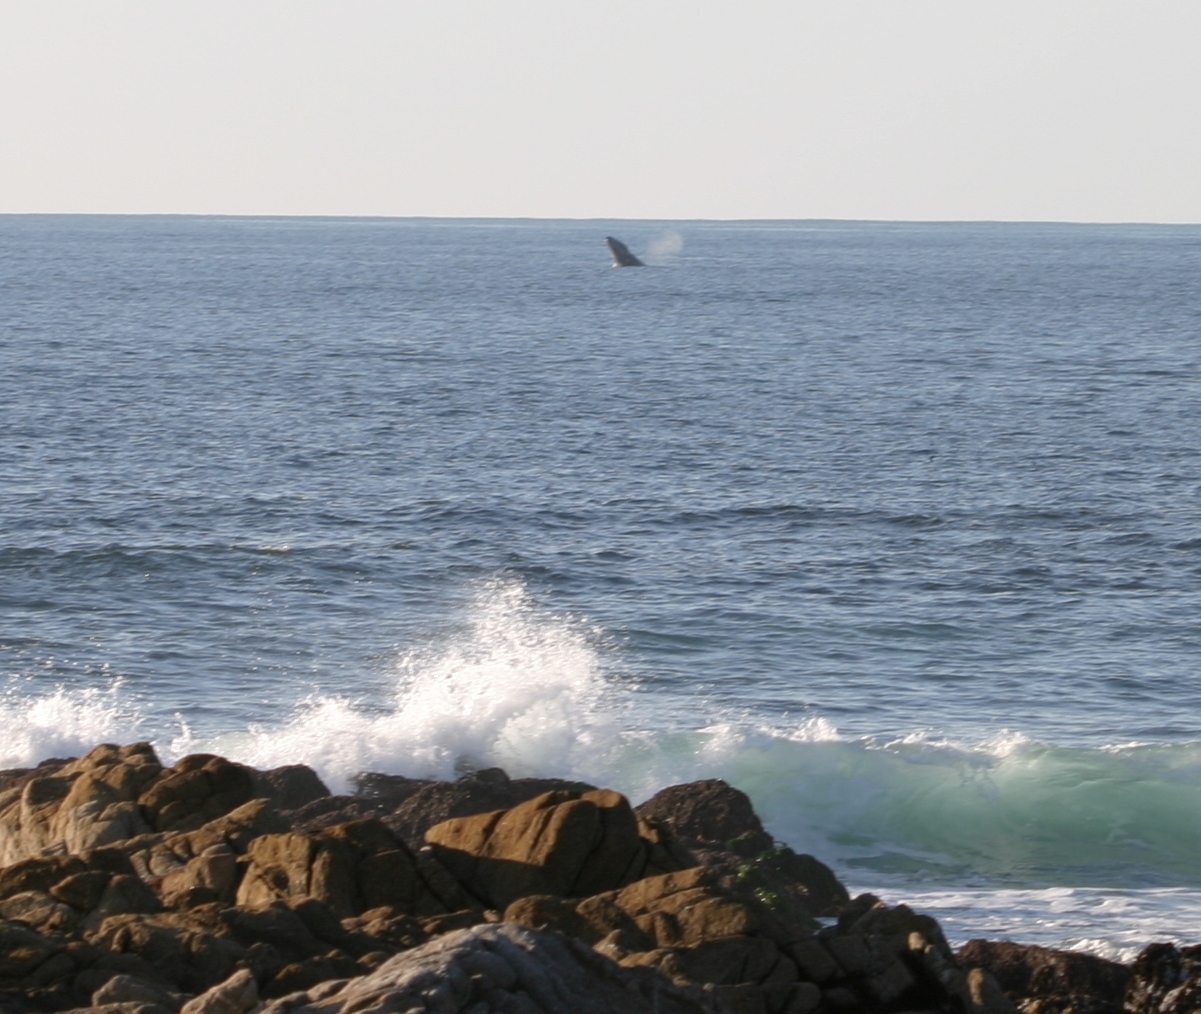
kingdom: Animalia
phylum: Chordata
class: Mammalia
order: Cetacea
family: Eschrichtiidae
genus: Eschrichtius
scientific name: Eschrichtius robustus
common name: Gray whale
